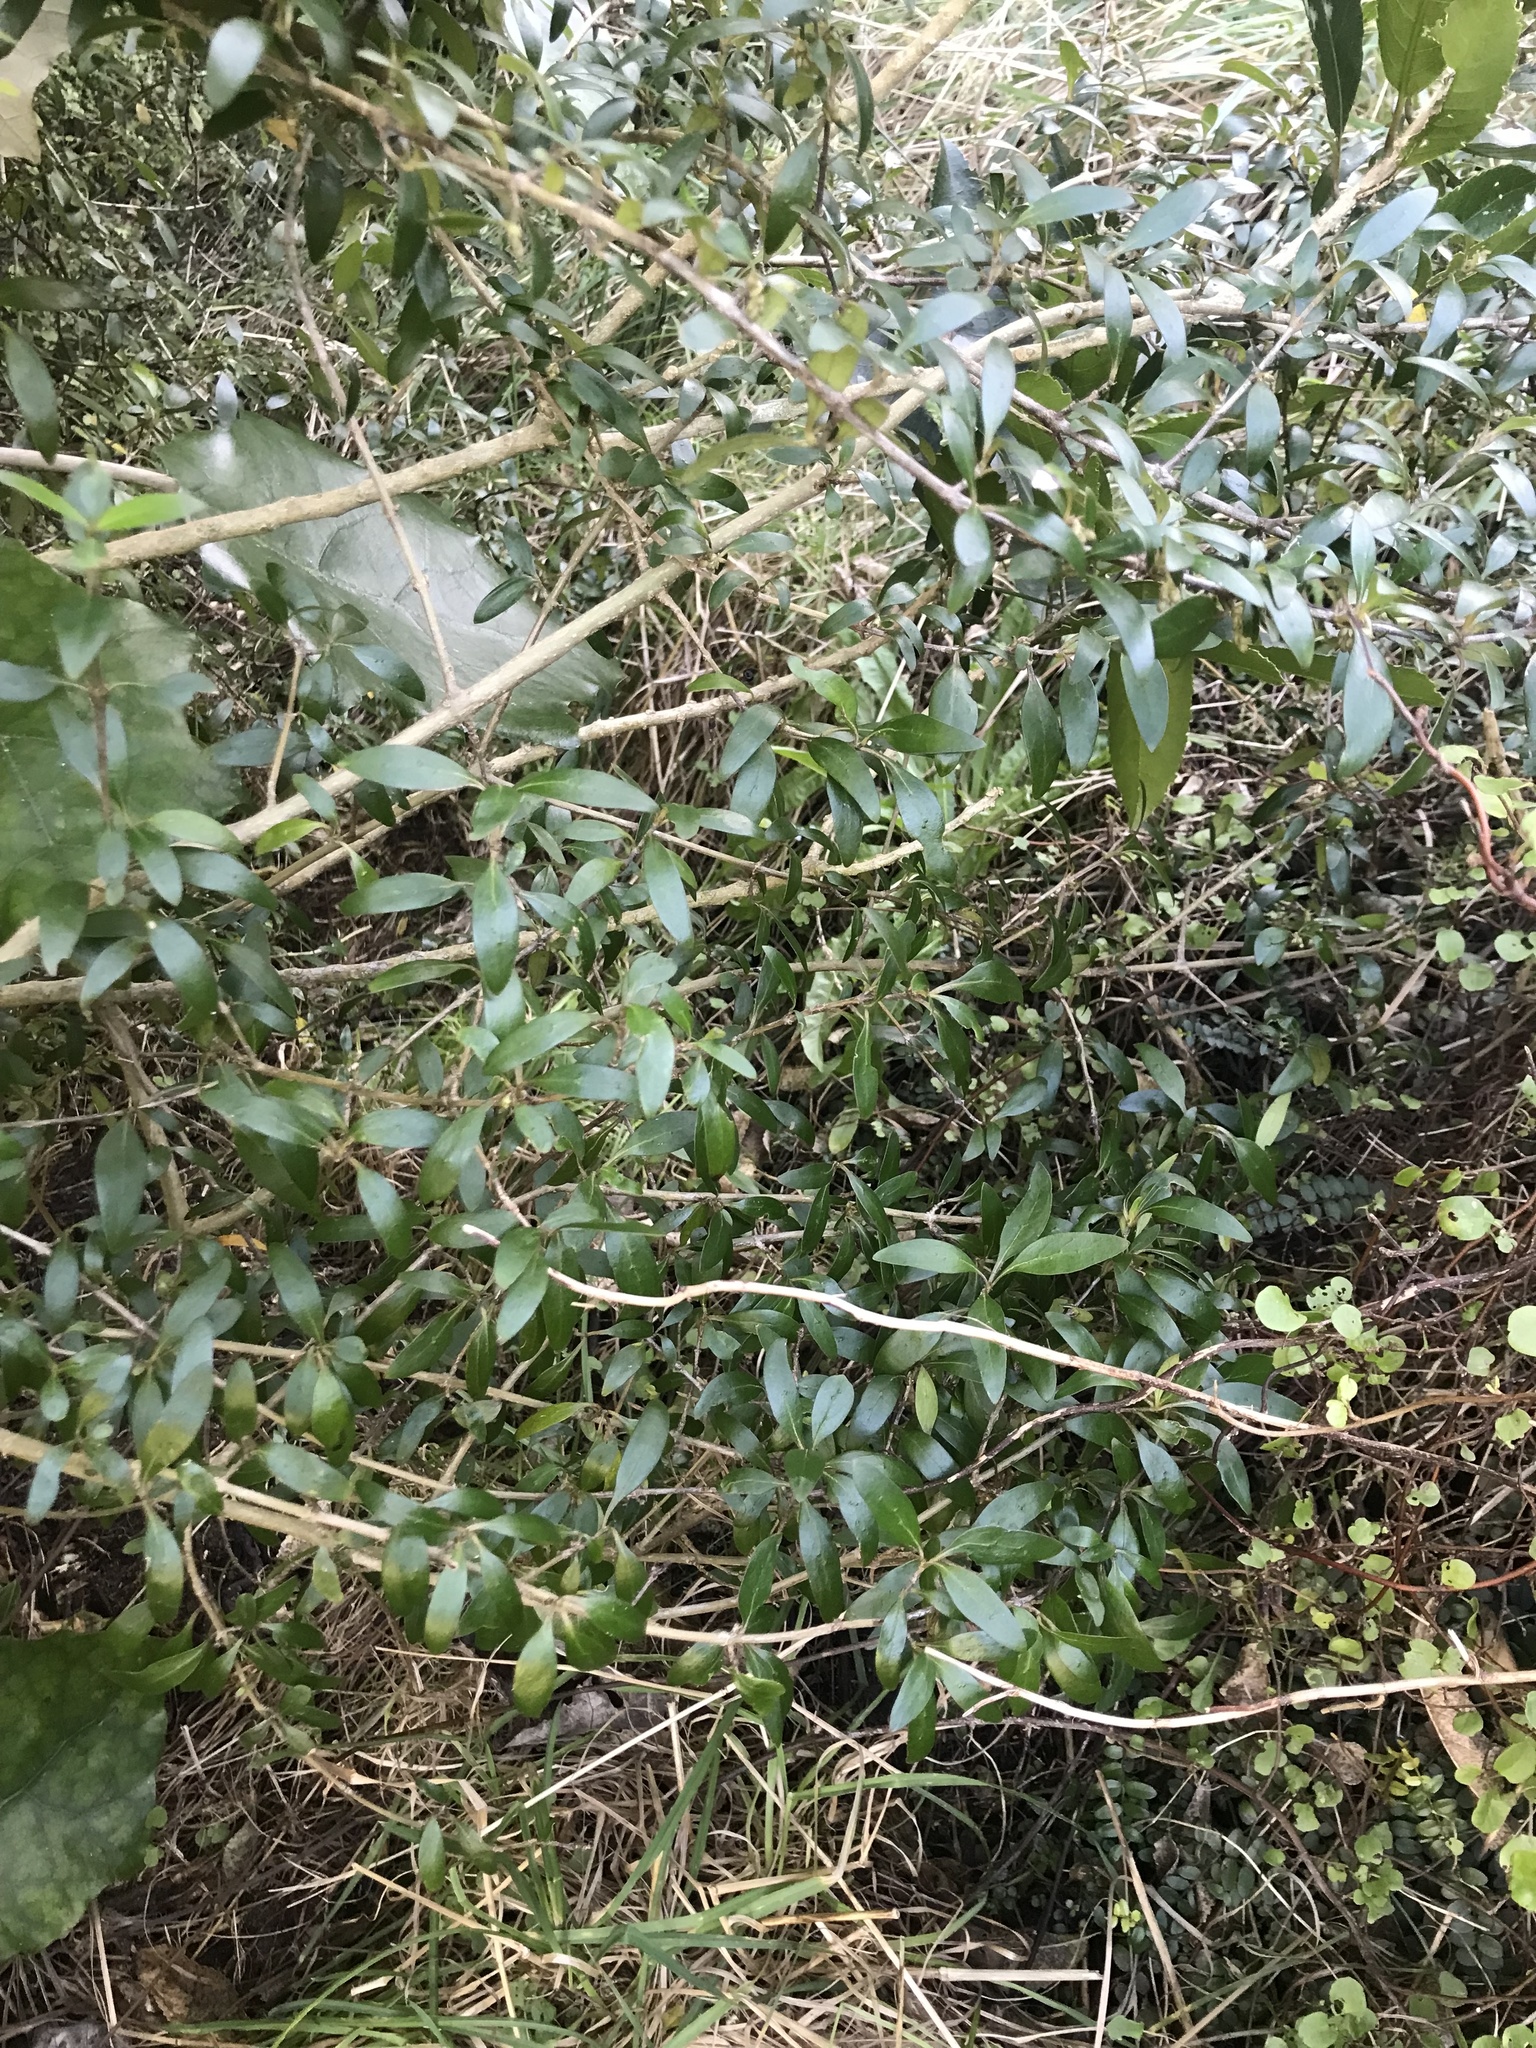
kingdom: Plantae
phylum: Tracheophyta
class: Magnoliopsida
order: Gentianales
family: Rubiaceae
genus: Coprosma
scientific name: Coprosma cunninghamii
